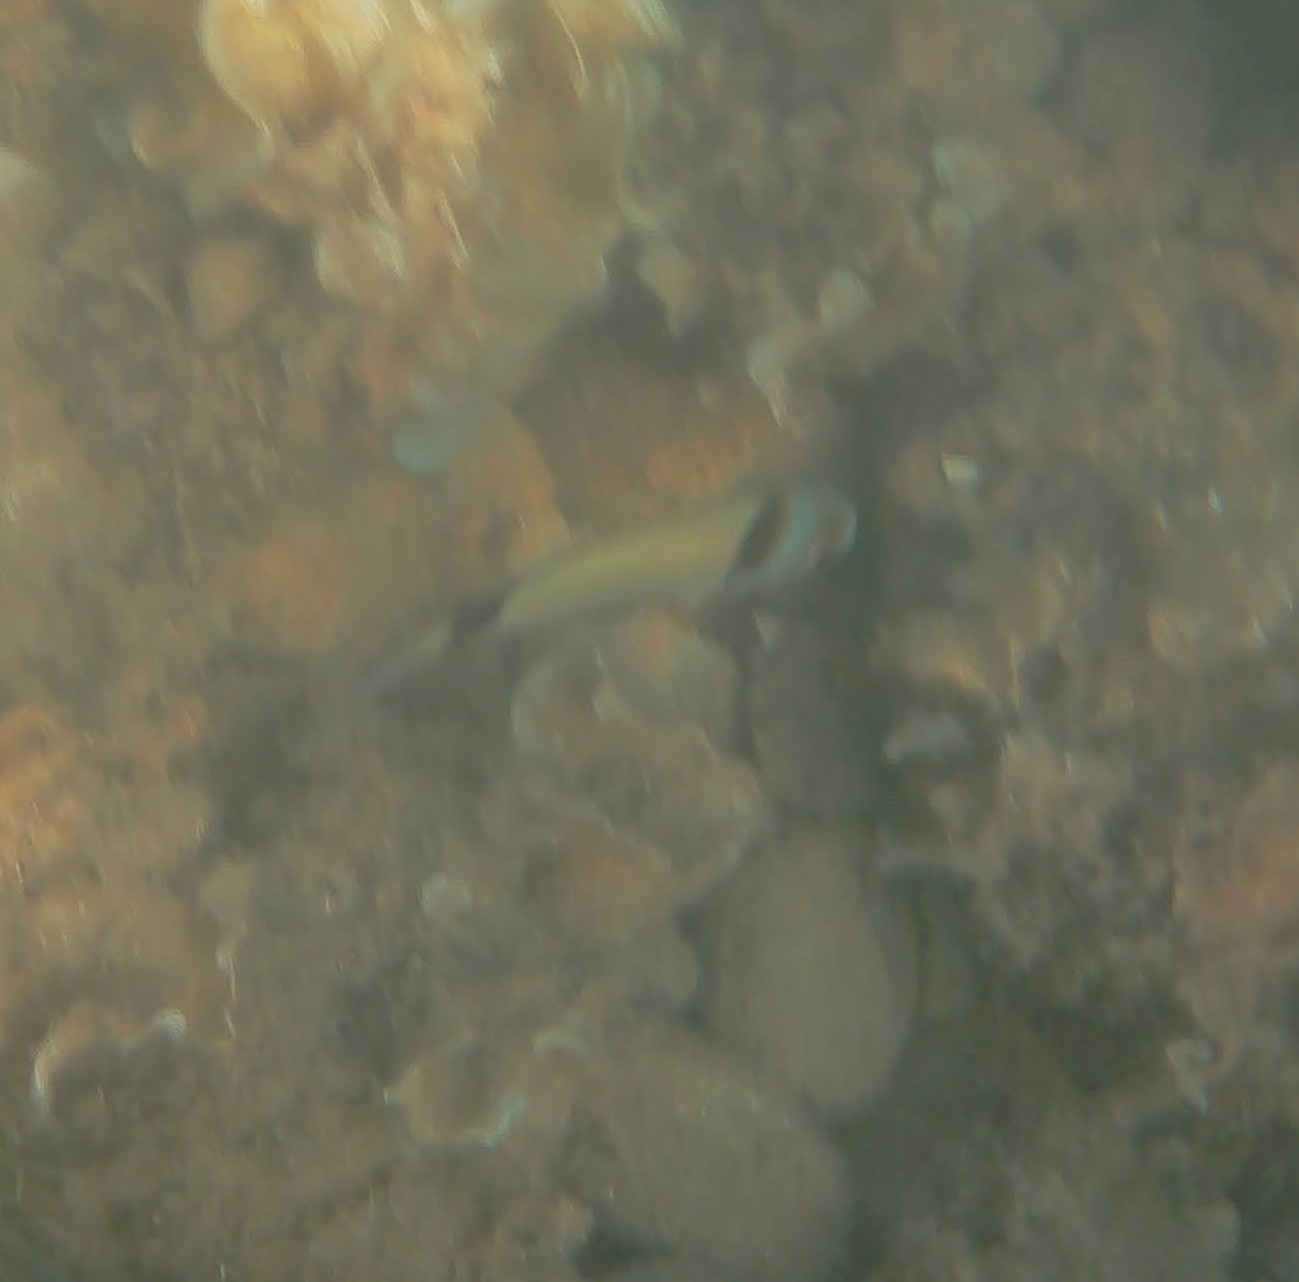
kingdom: Animalia
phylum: Chordata
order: Perciformes
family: Sparidae
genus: Diplodus
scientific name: Diplodus vulgaris
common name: Common two-banded seabream
